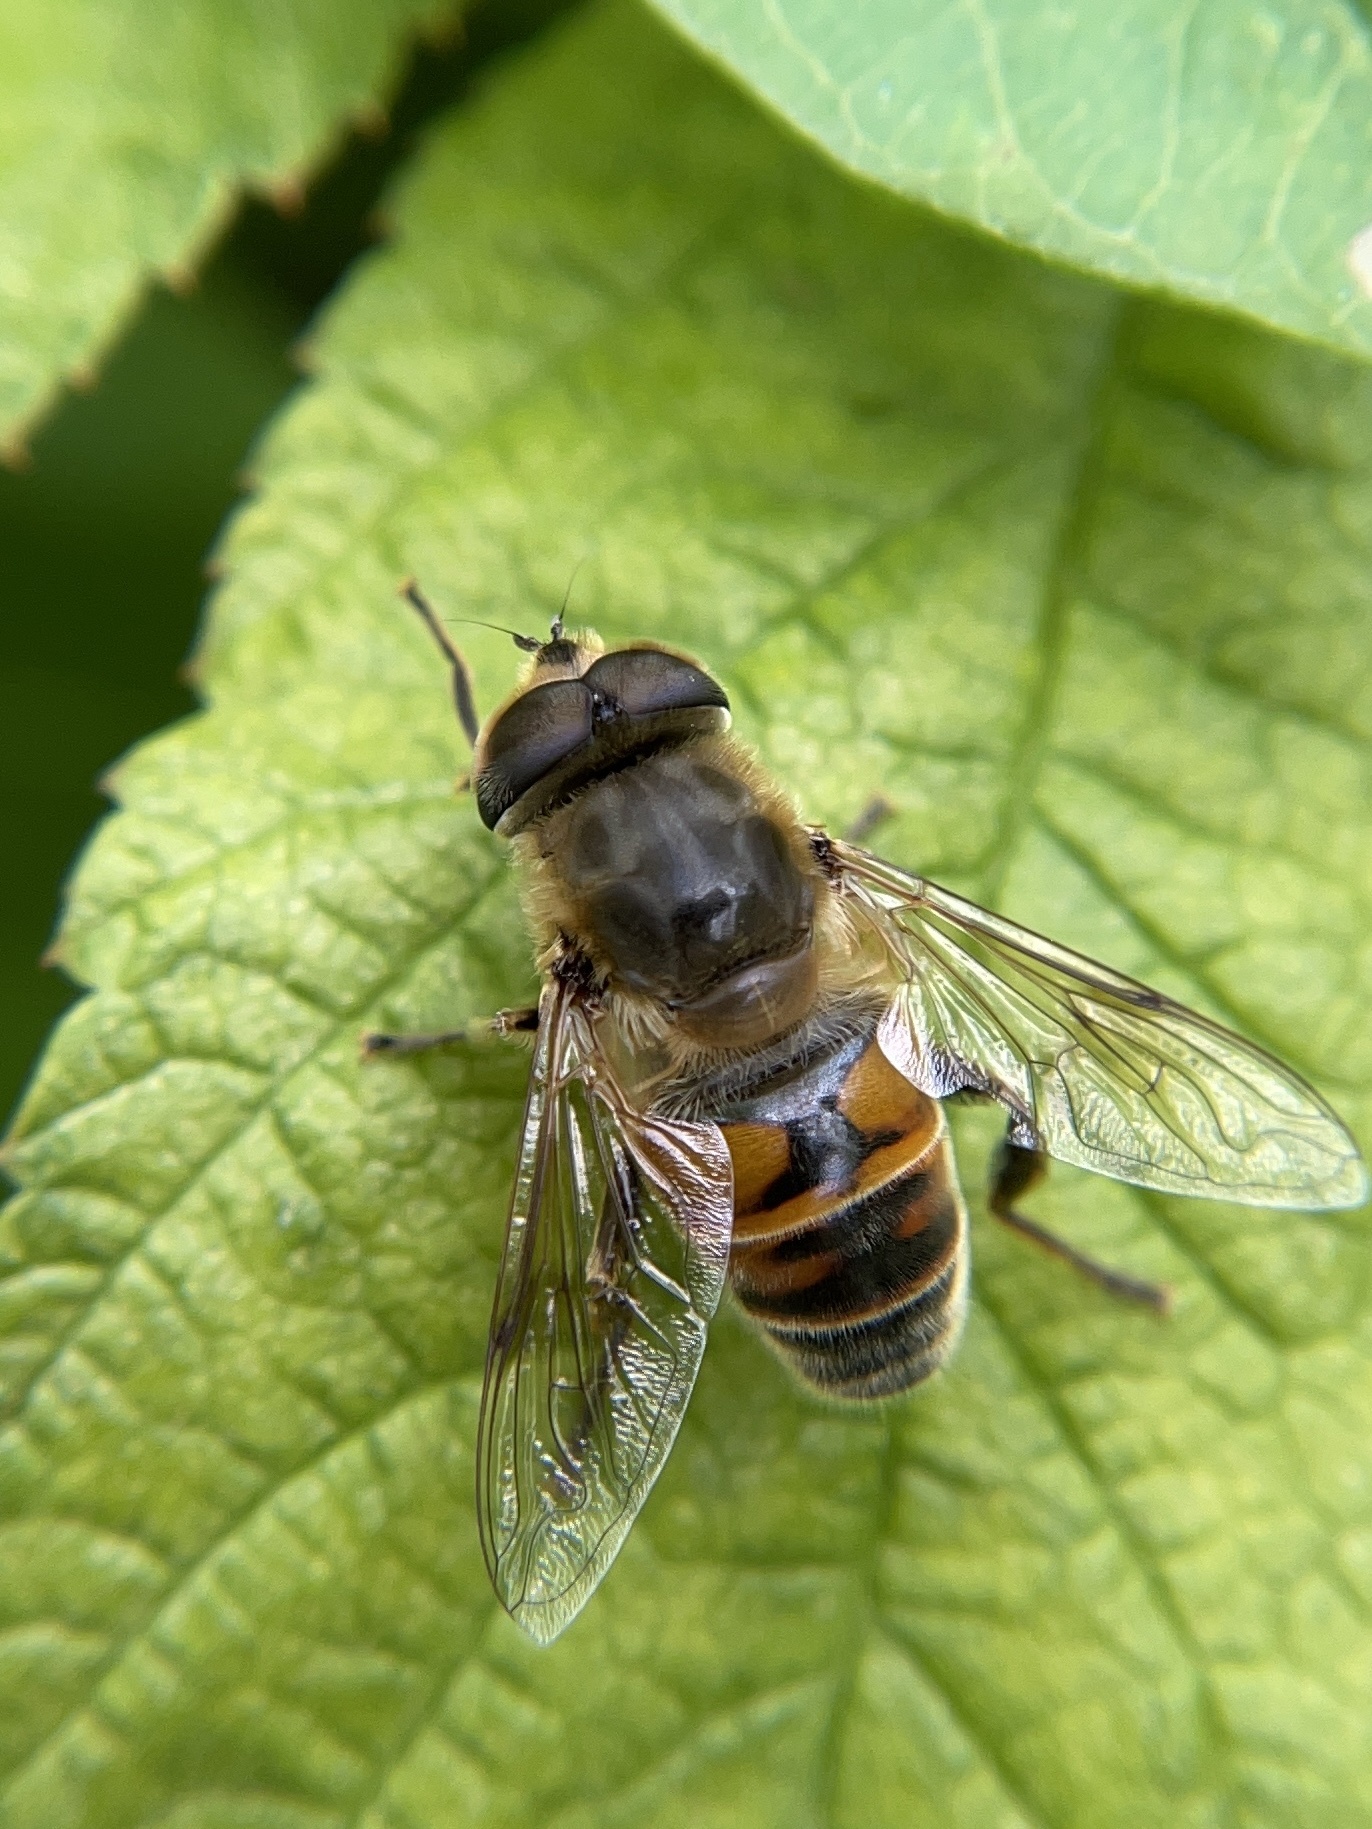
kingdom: Animalia
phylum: Arthropoda
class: Insecta
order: Diptera
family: Syrphidae
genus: Eristalis
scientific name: Eristalis tenax
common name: Drone fly
